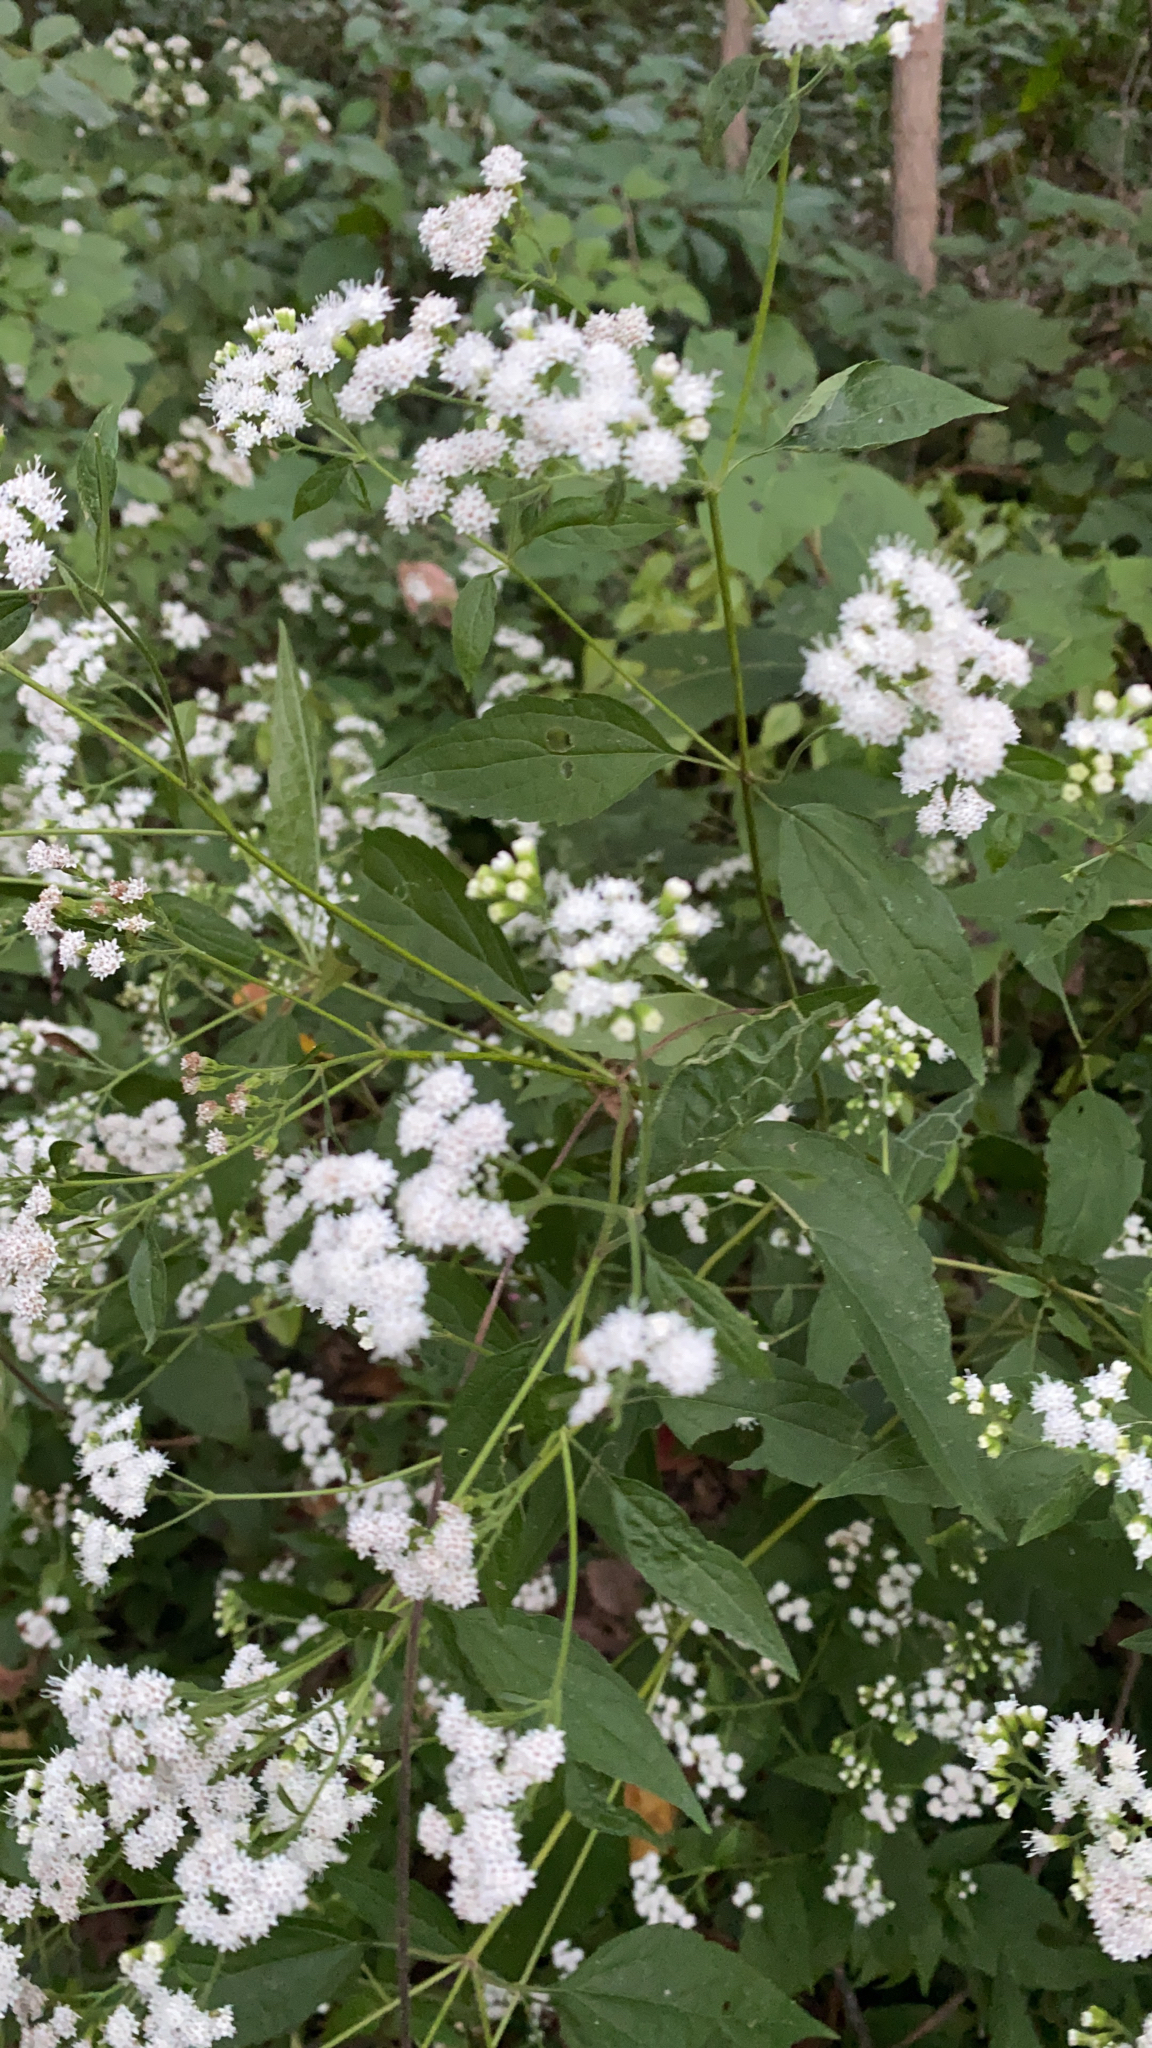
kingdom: Plantae
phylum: Tracheophyta
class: Magnoliopsida
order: Asterales
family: Asteraceae
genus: Ageratina
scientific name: Ageratina altissima
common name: White snakeroot
